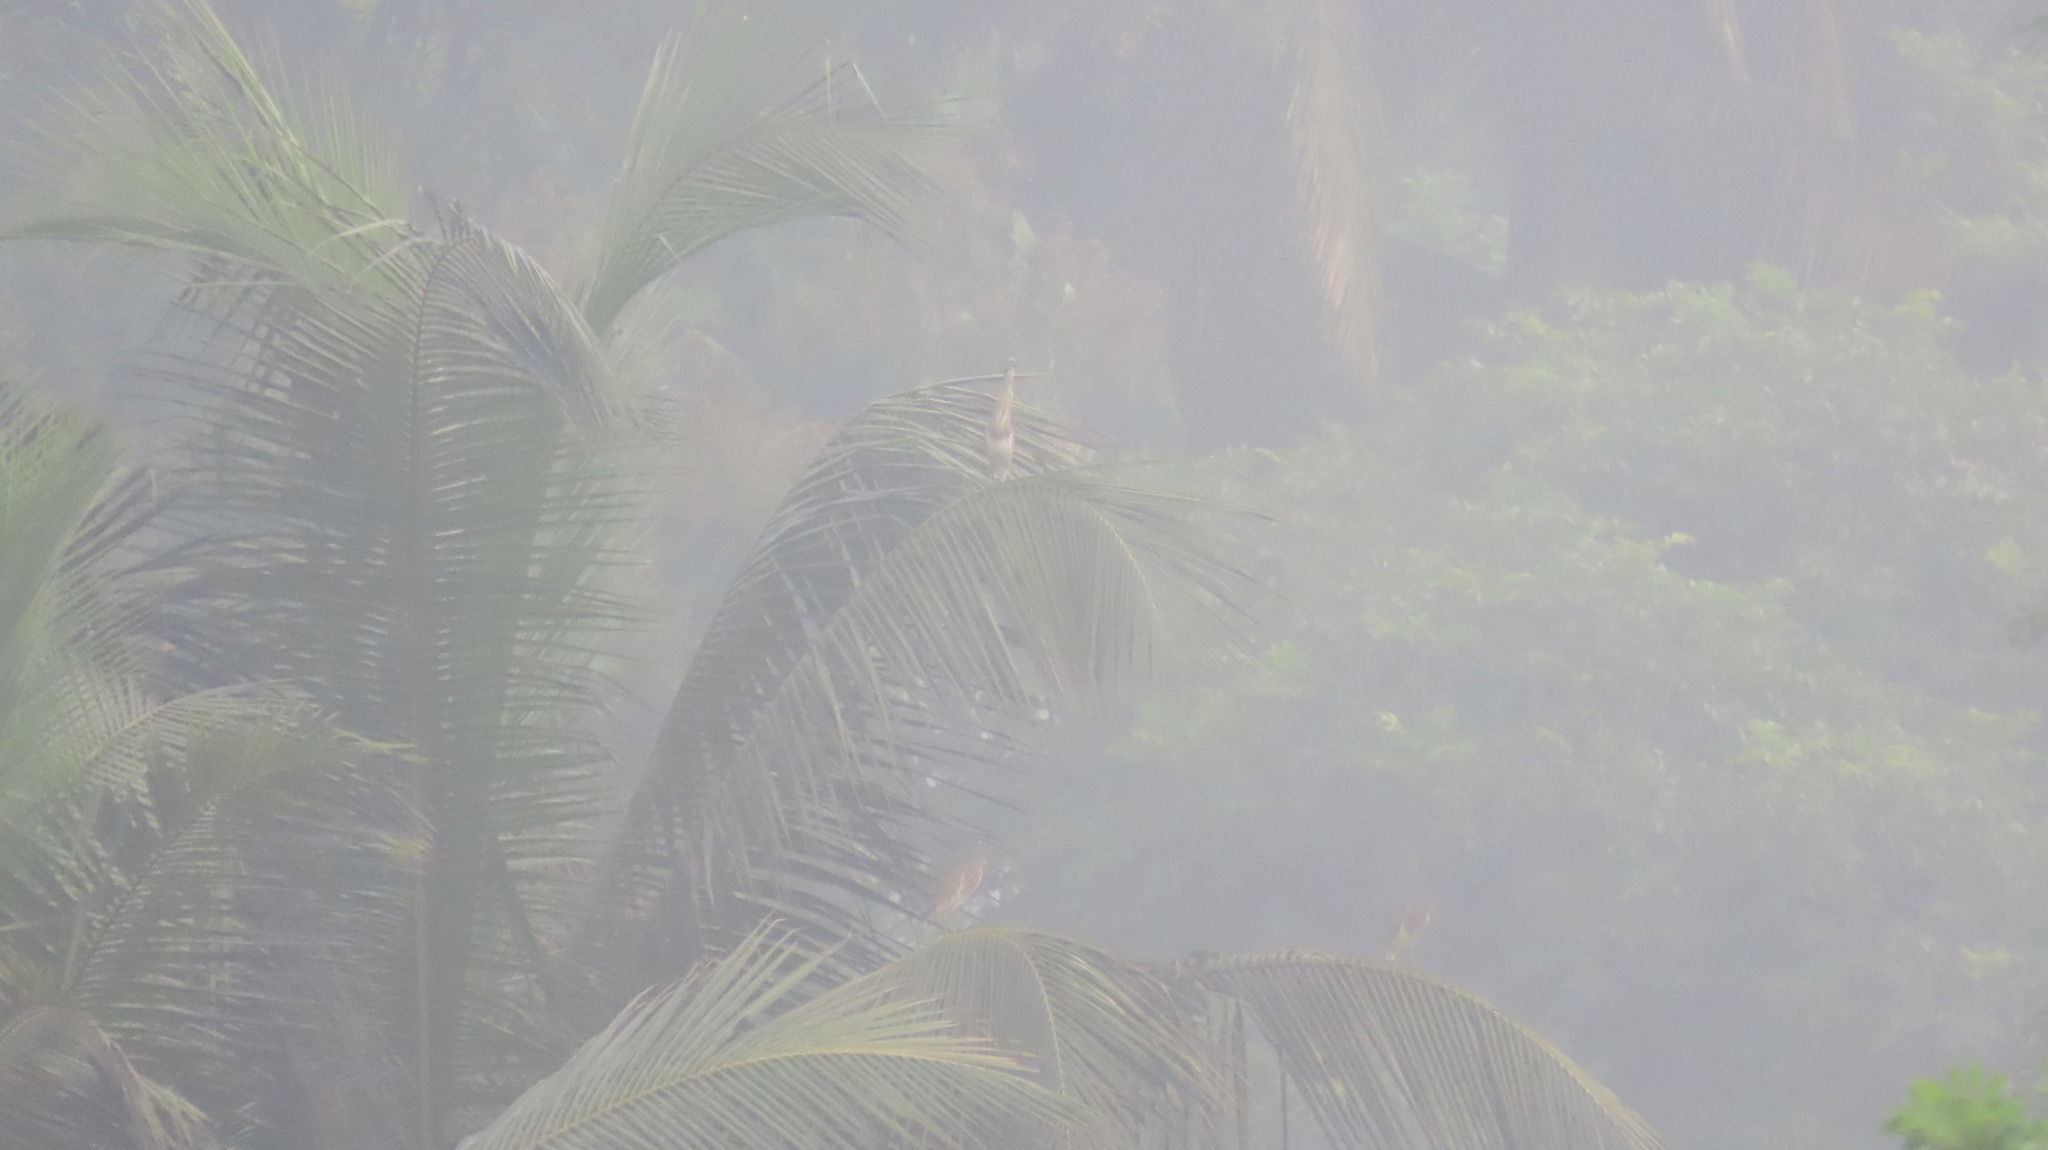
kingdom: Animalia
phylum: Chordata
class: Aves
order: Pelecaniformes
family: Ardeidae
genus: Ardeola
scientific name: Ardeola grayii
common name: Indian pond heron
